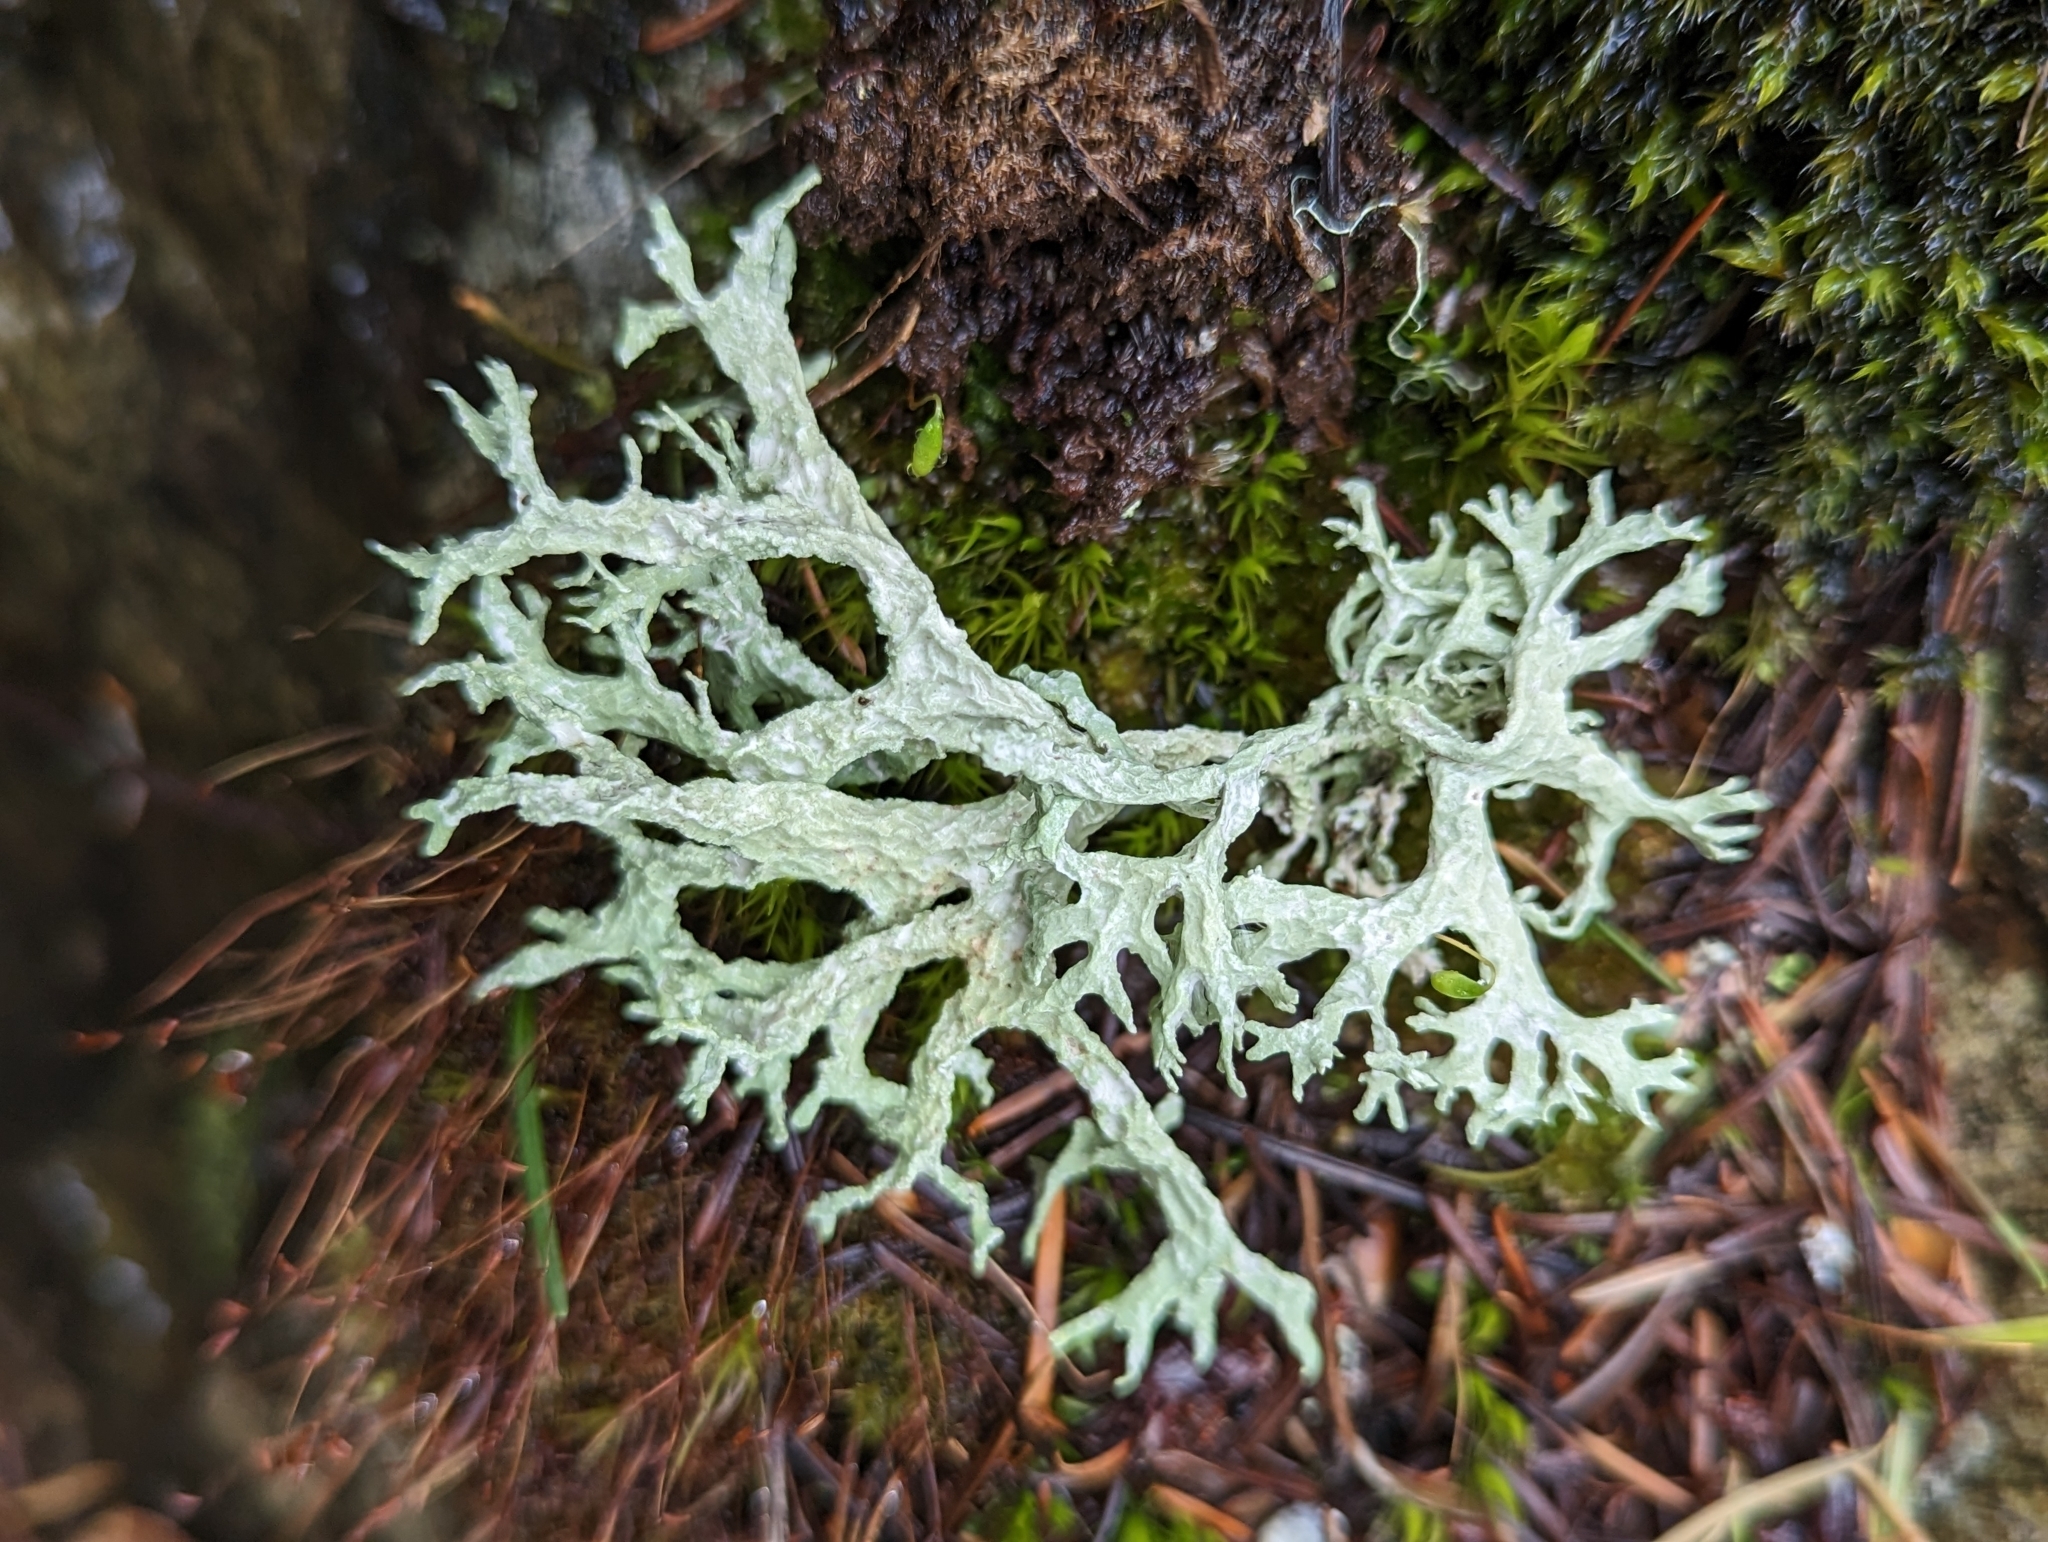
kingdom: Fungi
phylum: Ascomycota
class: Lecanoromycetes
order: Lecanorales
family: Parmeliaceae
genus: Evernia
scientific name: Evernia prunastri
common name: Oak moss
